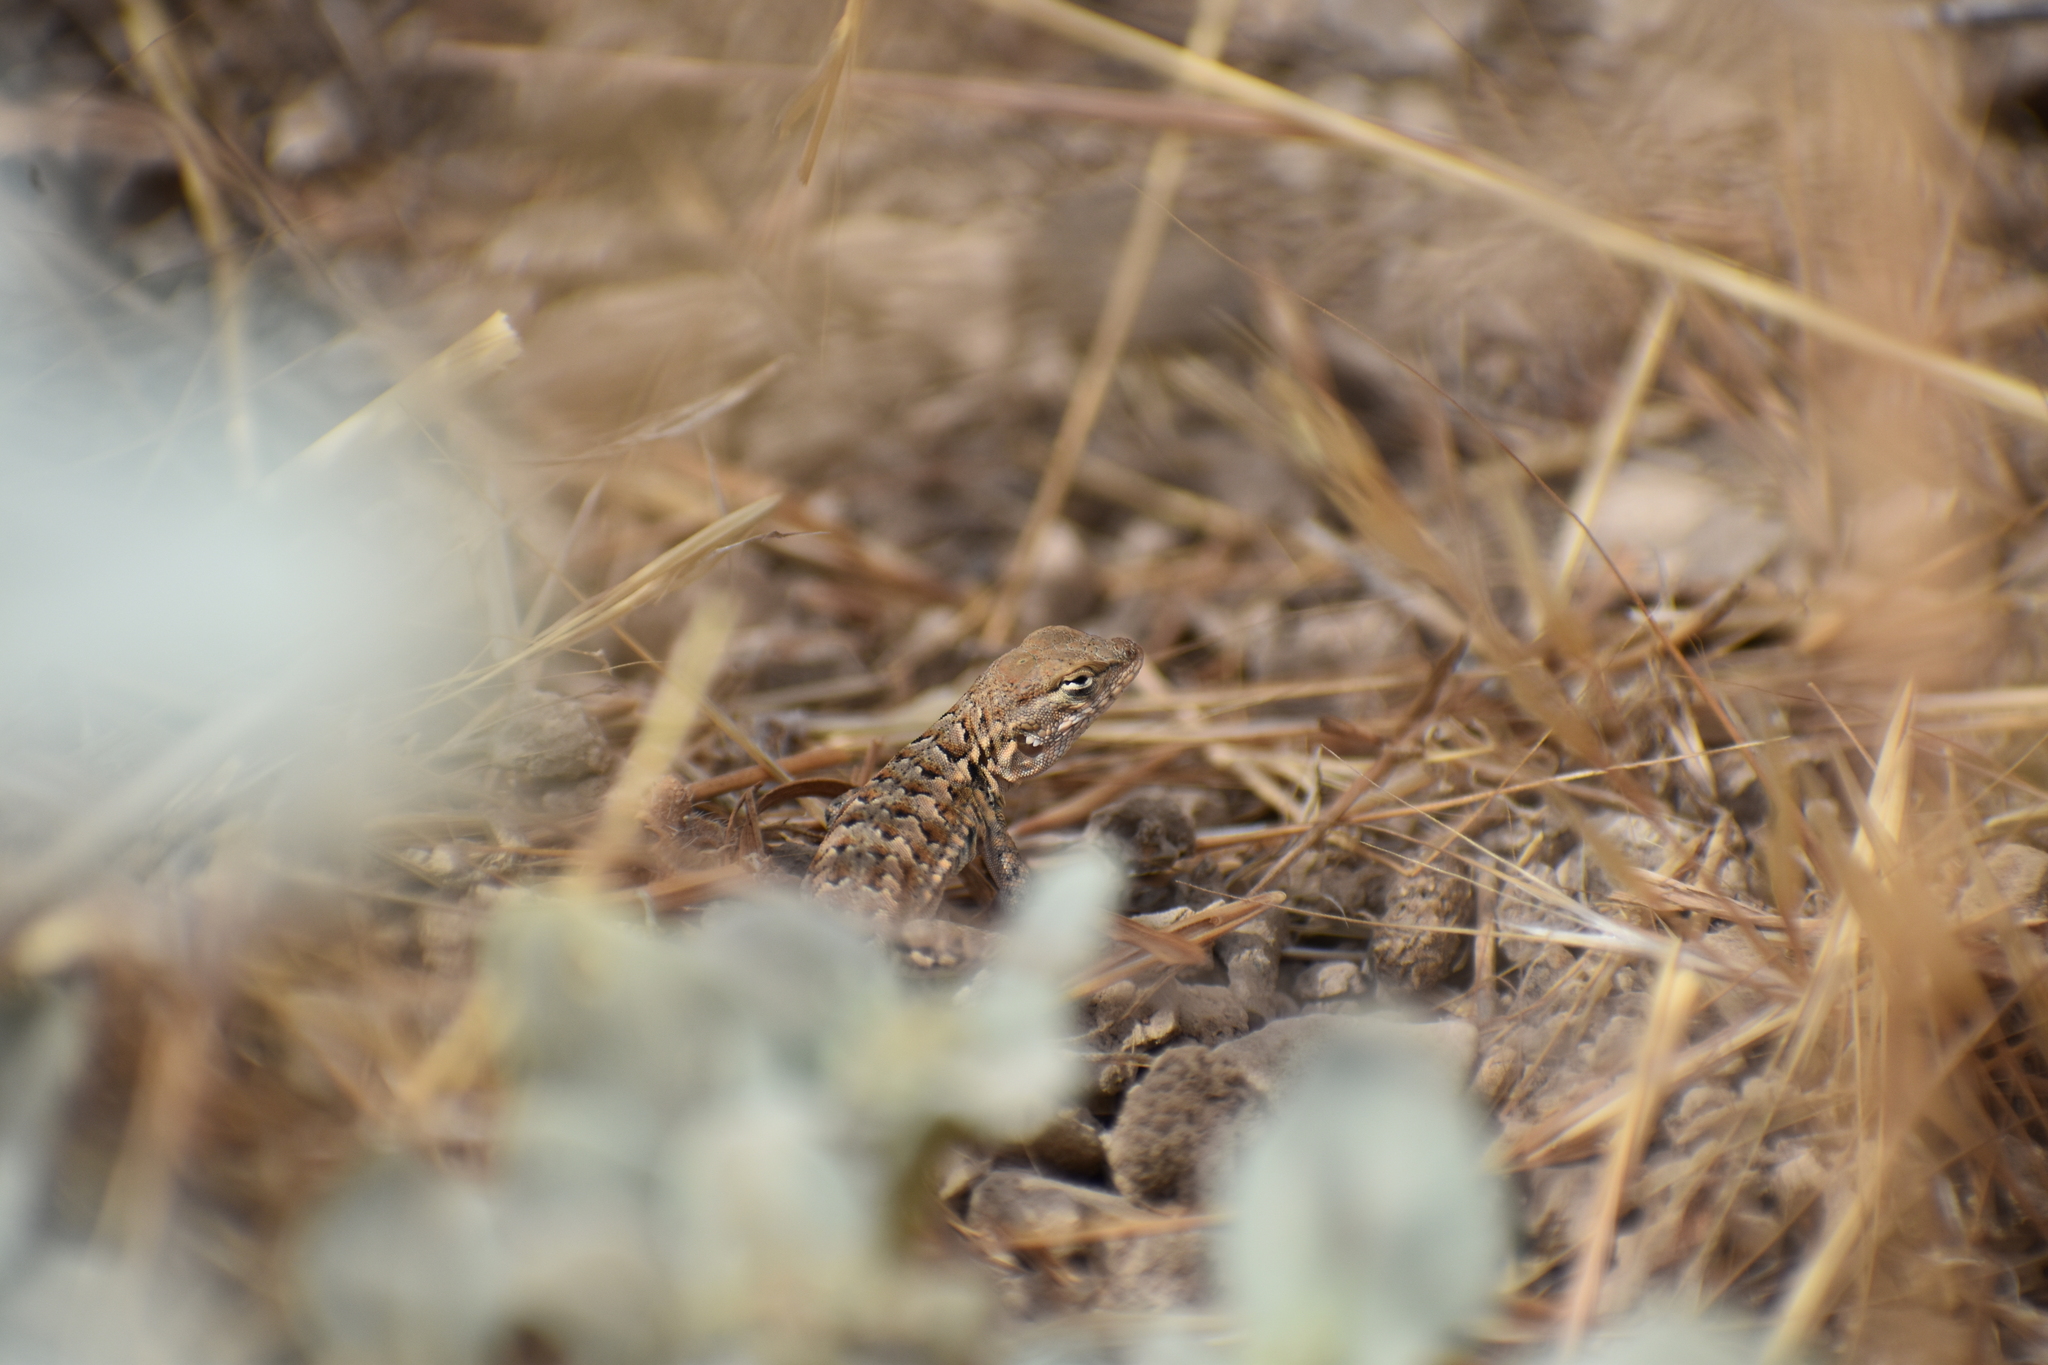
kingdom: Animalia
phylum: Chordata
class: Squamata
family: Phrynosomatidae
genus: Uta
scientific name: Uta stansburiana
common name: Side-blotched lizard
